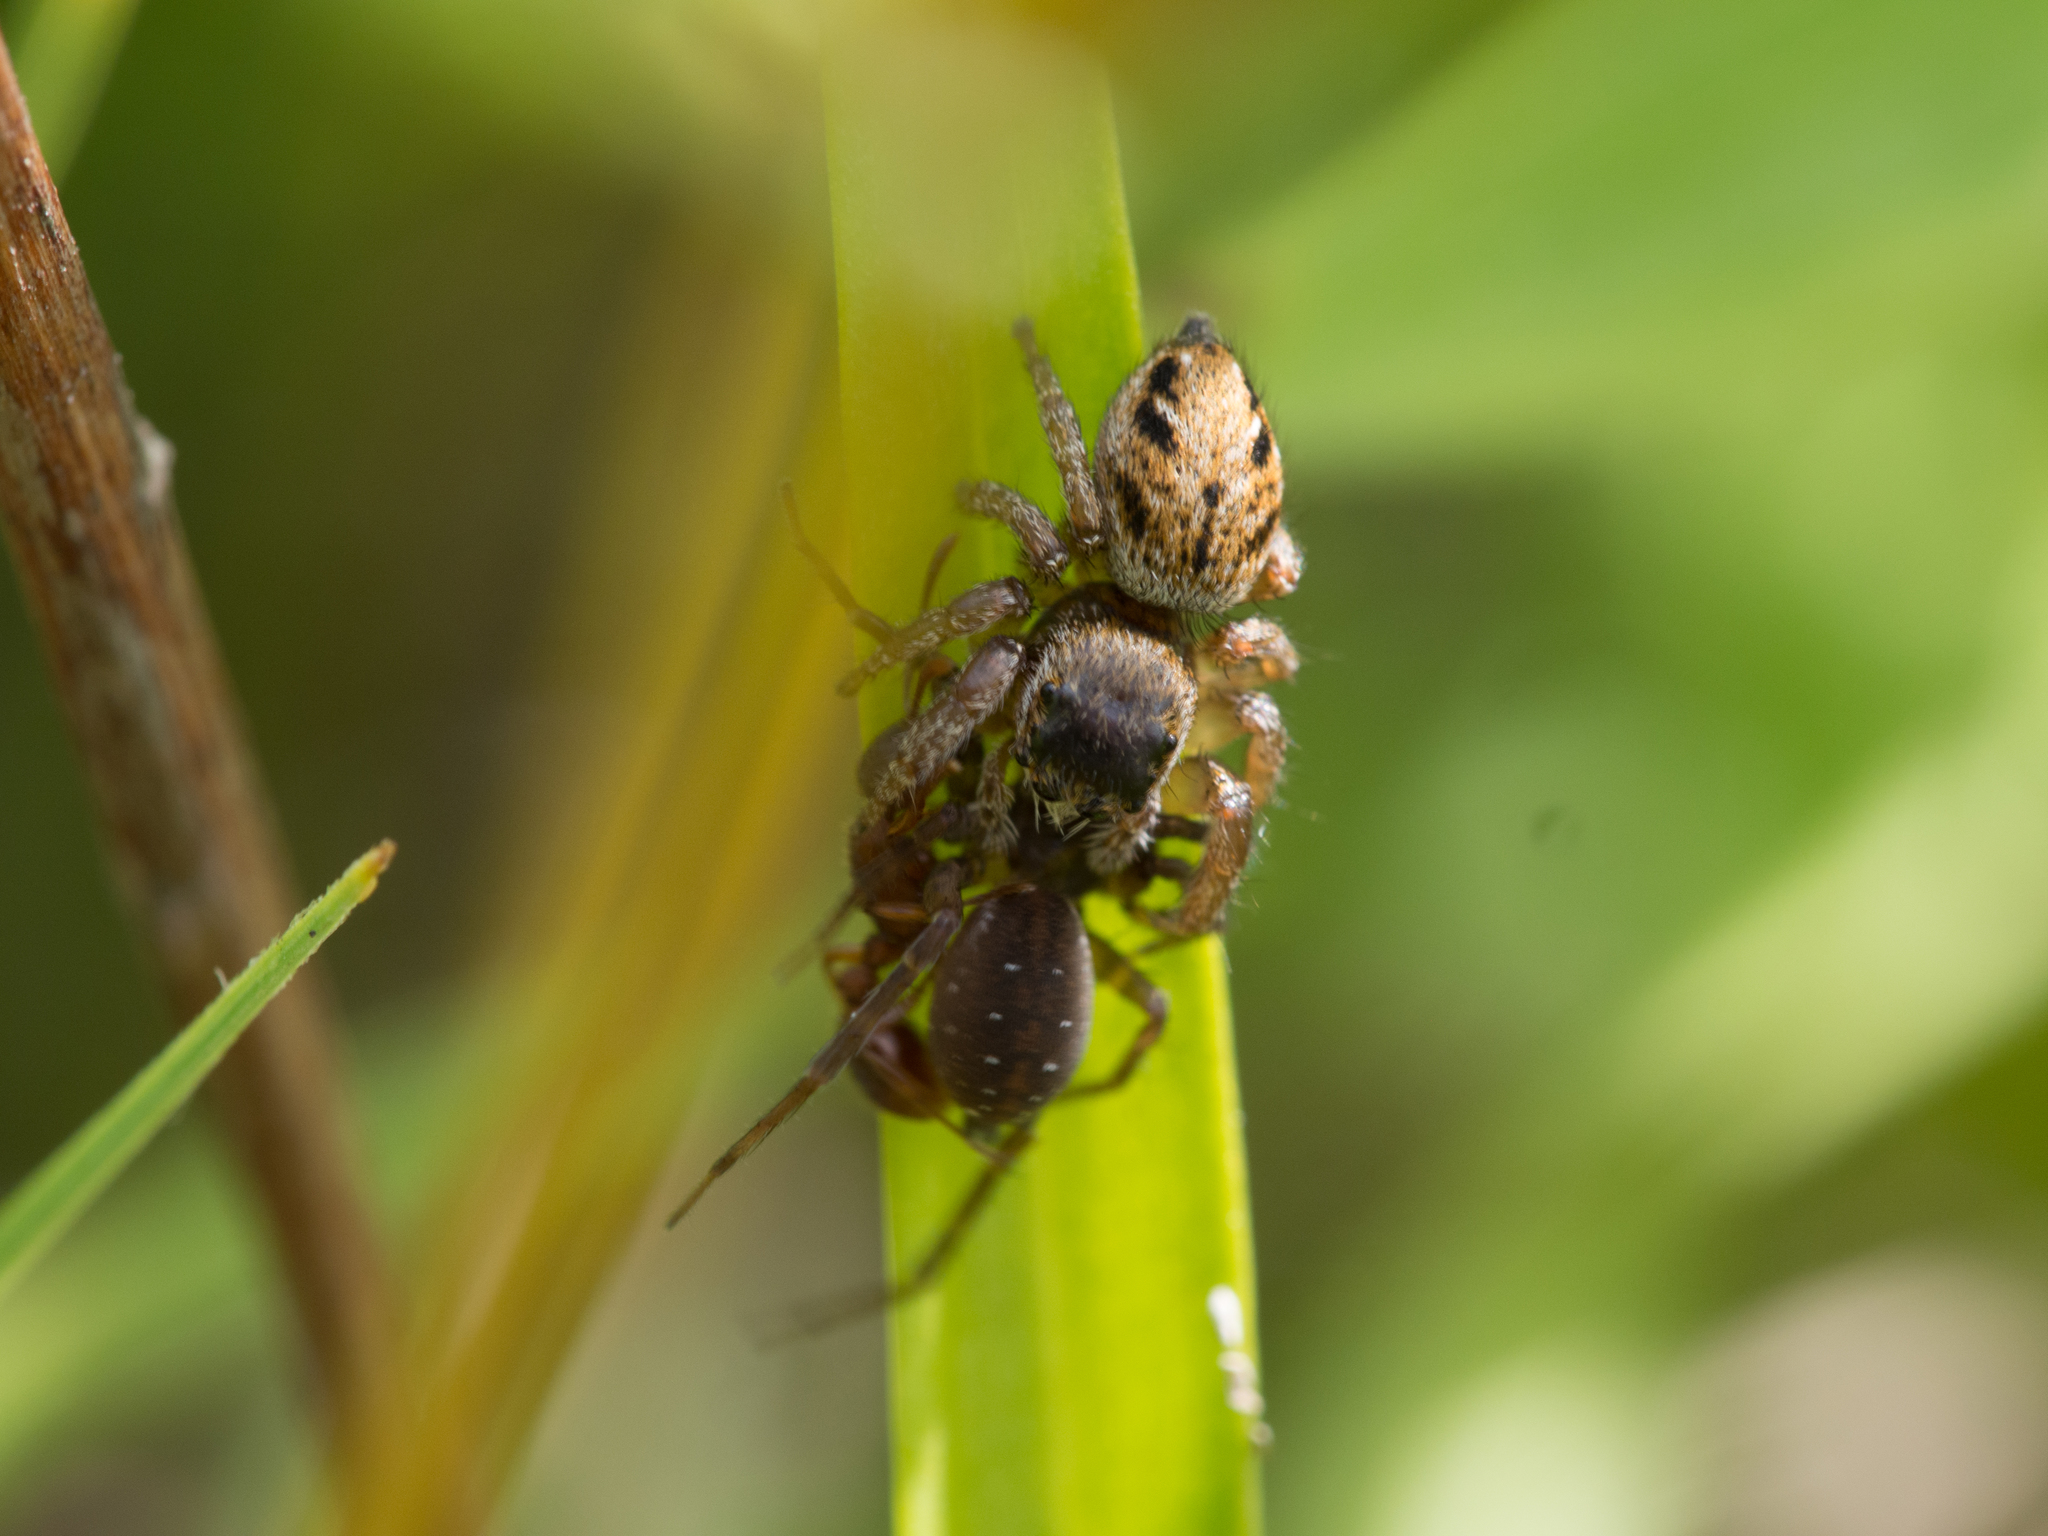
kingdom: Animalia
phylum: Arthropoda
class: Arachnida
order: Araneae
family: Salticidae
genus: Evarcha
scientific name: Evarcha arcuata
